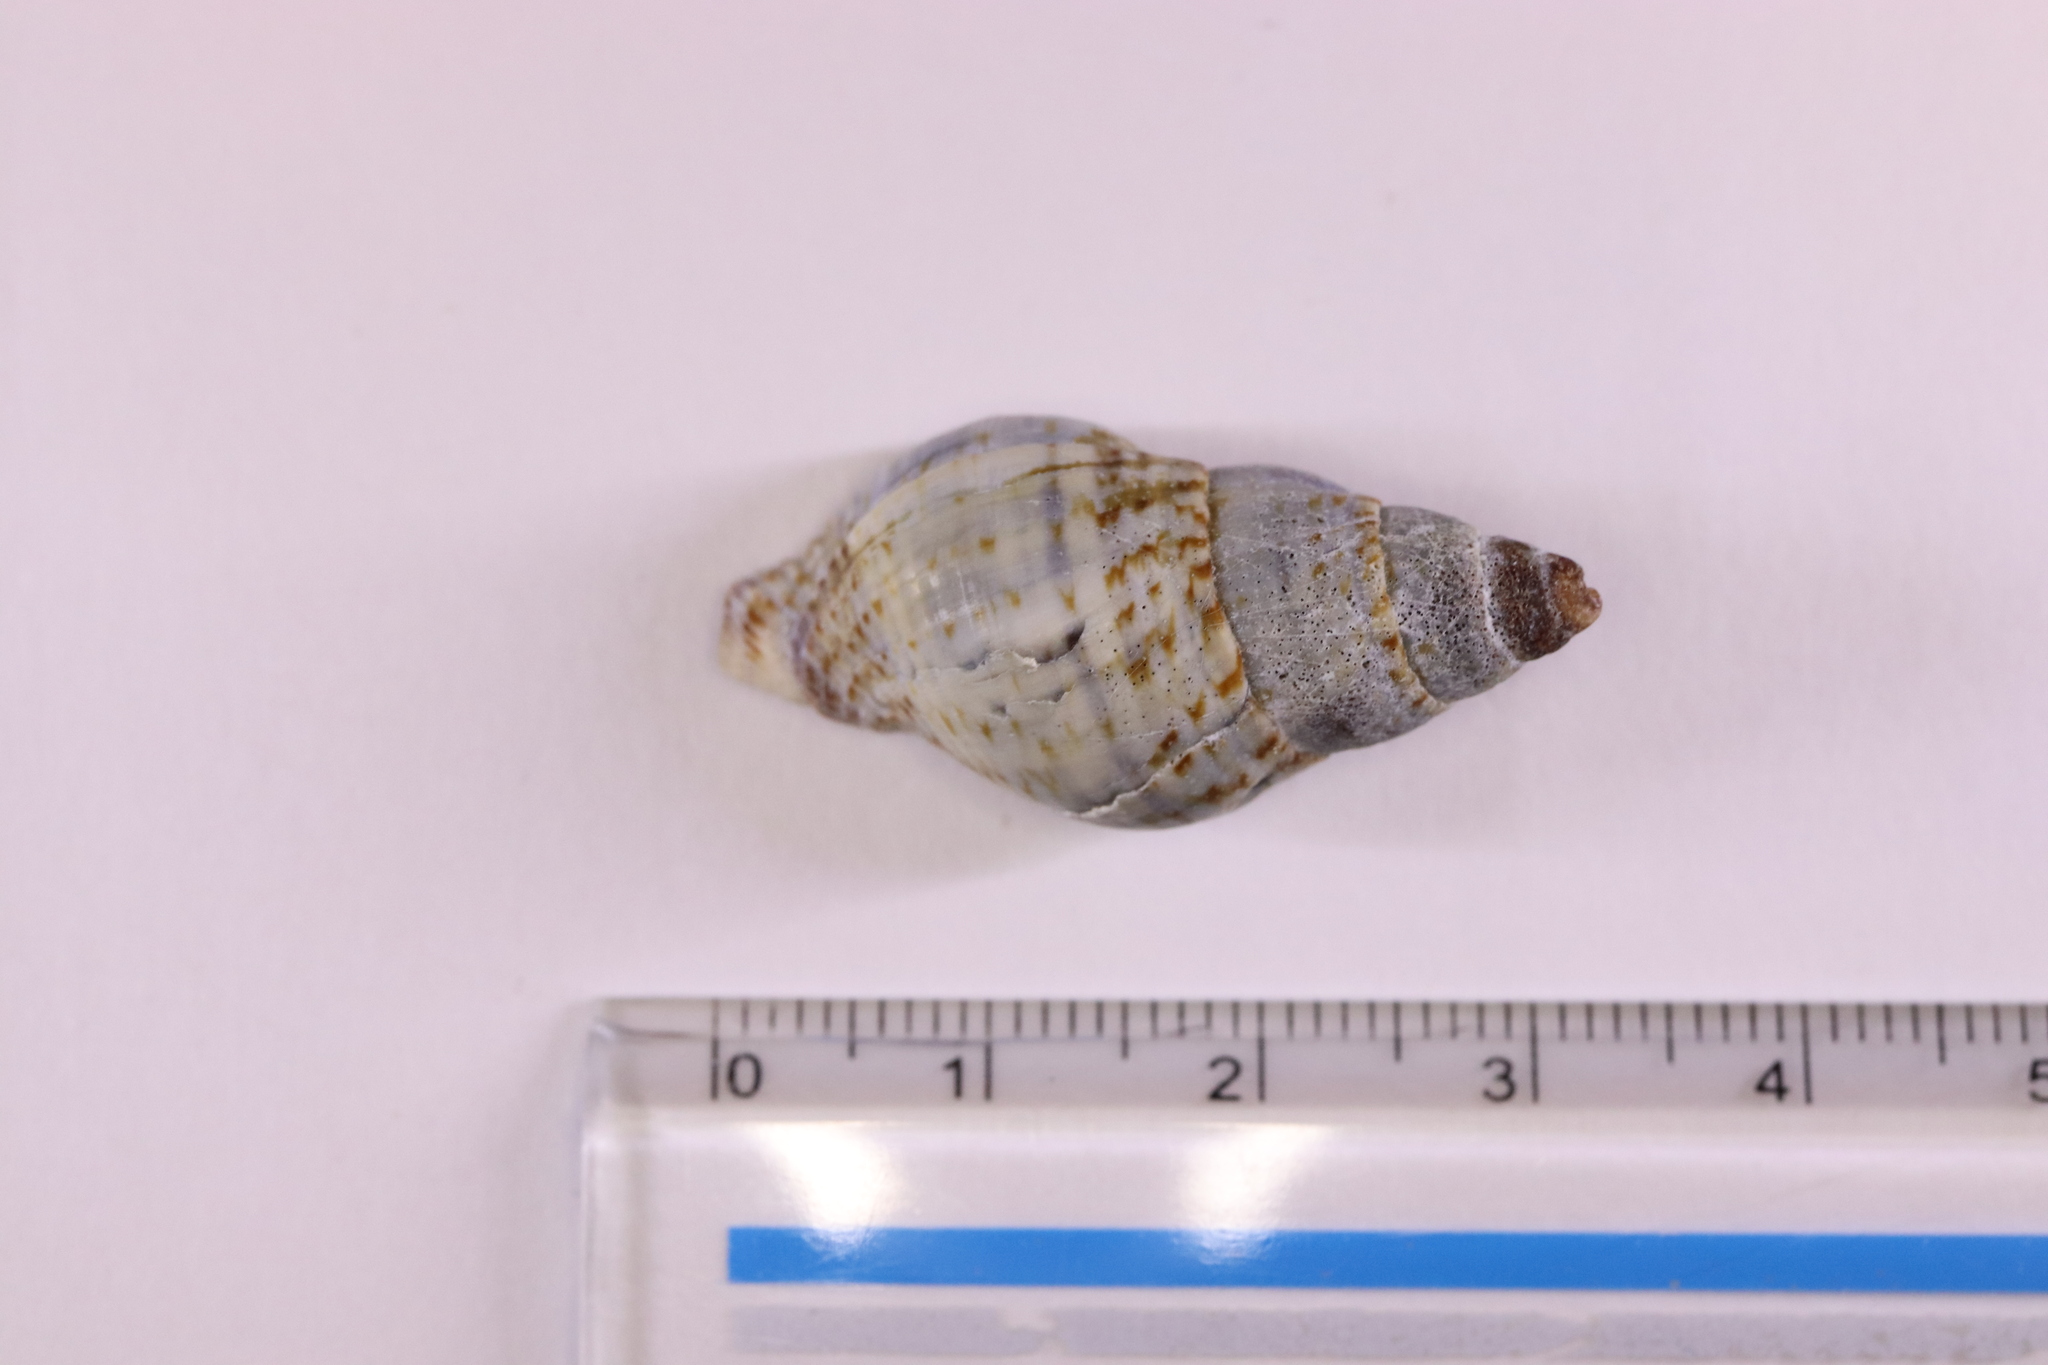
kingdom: Animalia
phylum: Mollusca
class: Gastropoda
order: Neogastropoda
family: Buccinidae
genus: Japeuthria
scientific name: Japeuthria ferrea
